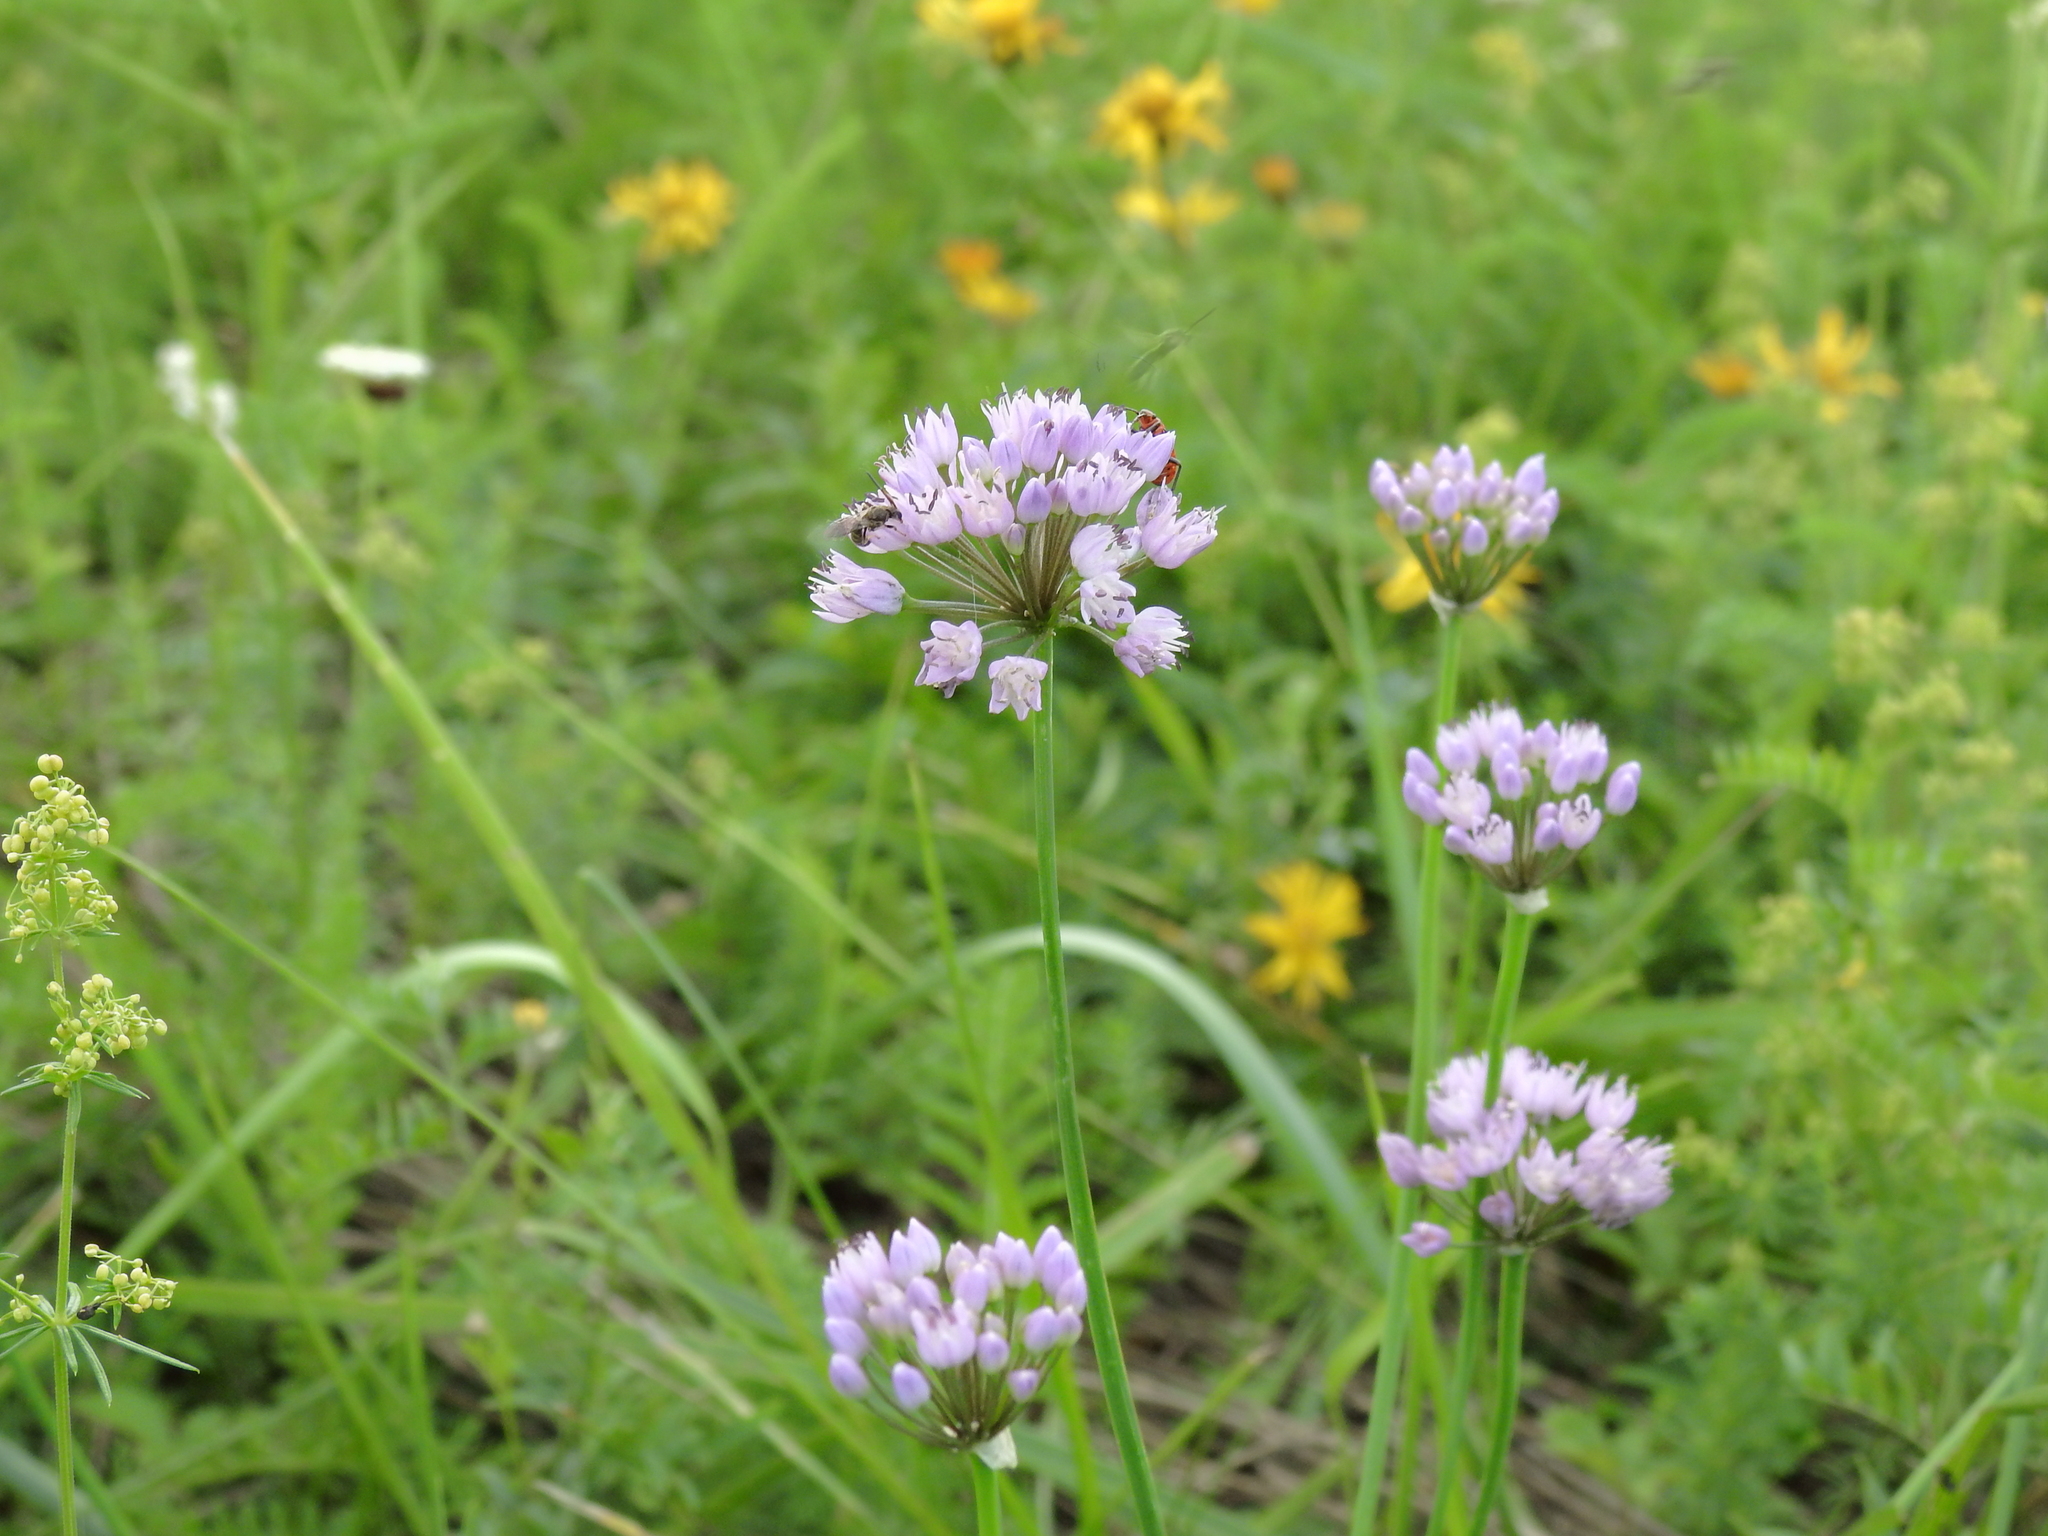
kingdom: Plantae
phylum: Tracheophyta
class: Liliopsida
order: Asparagales
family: Amaryllidaceae
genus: Allium
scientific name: Allium angulosum
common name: Mouse garlic
